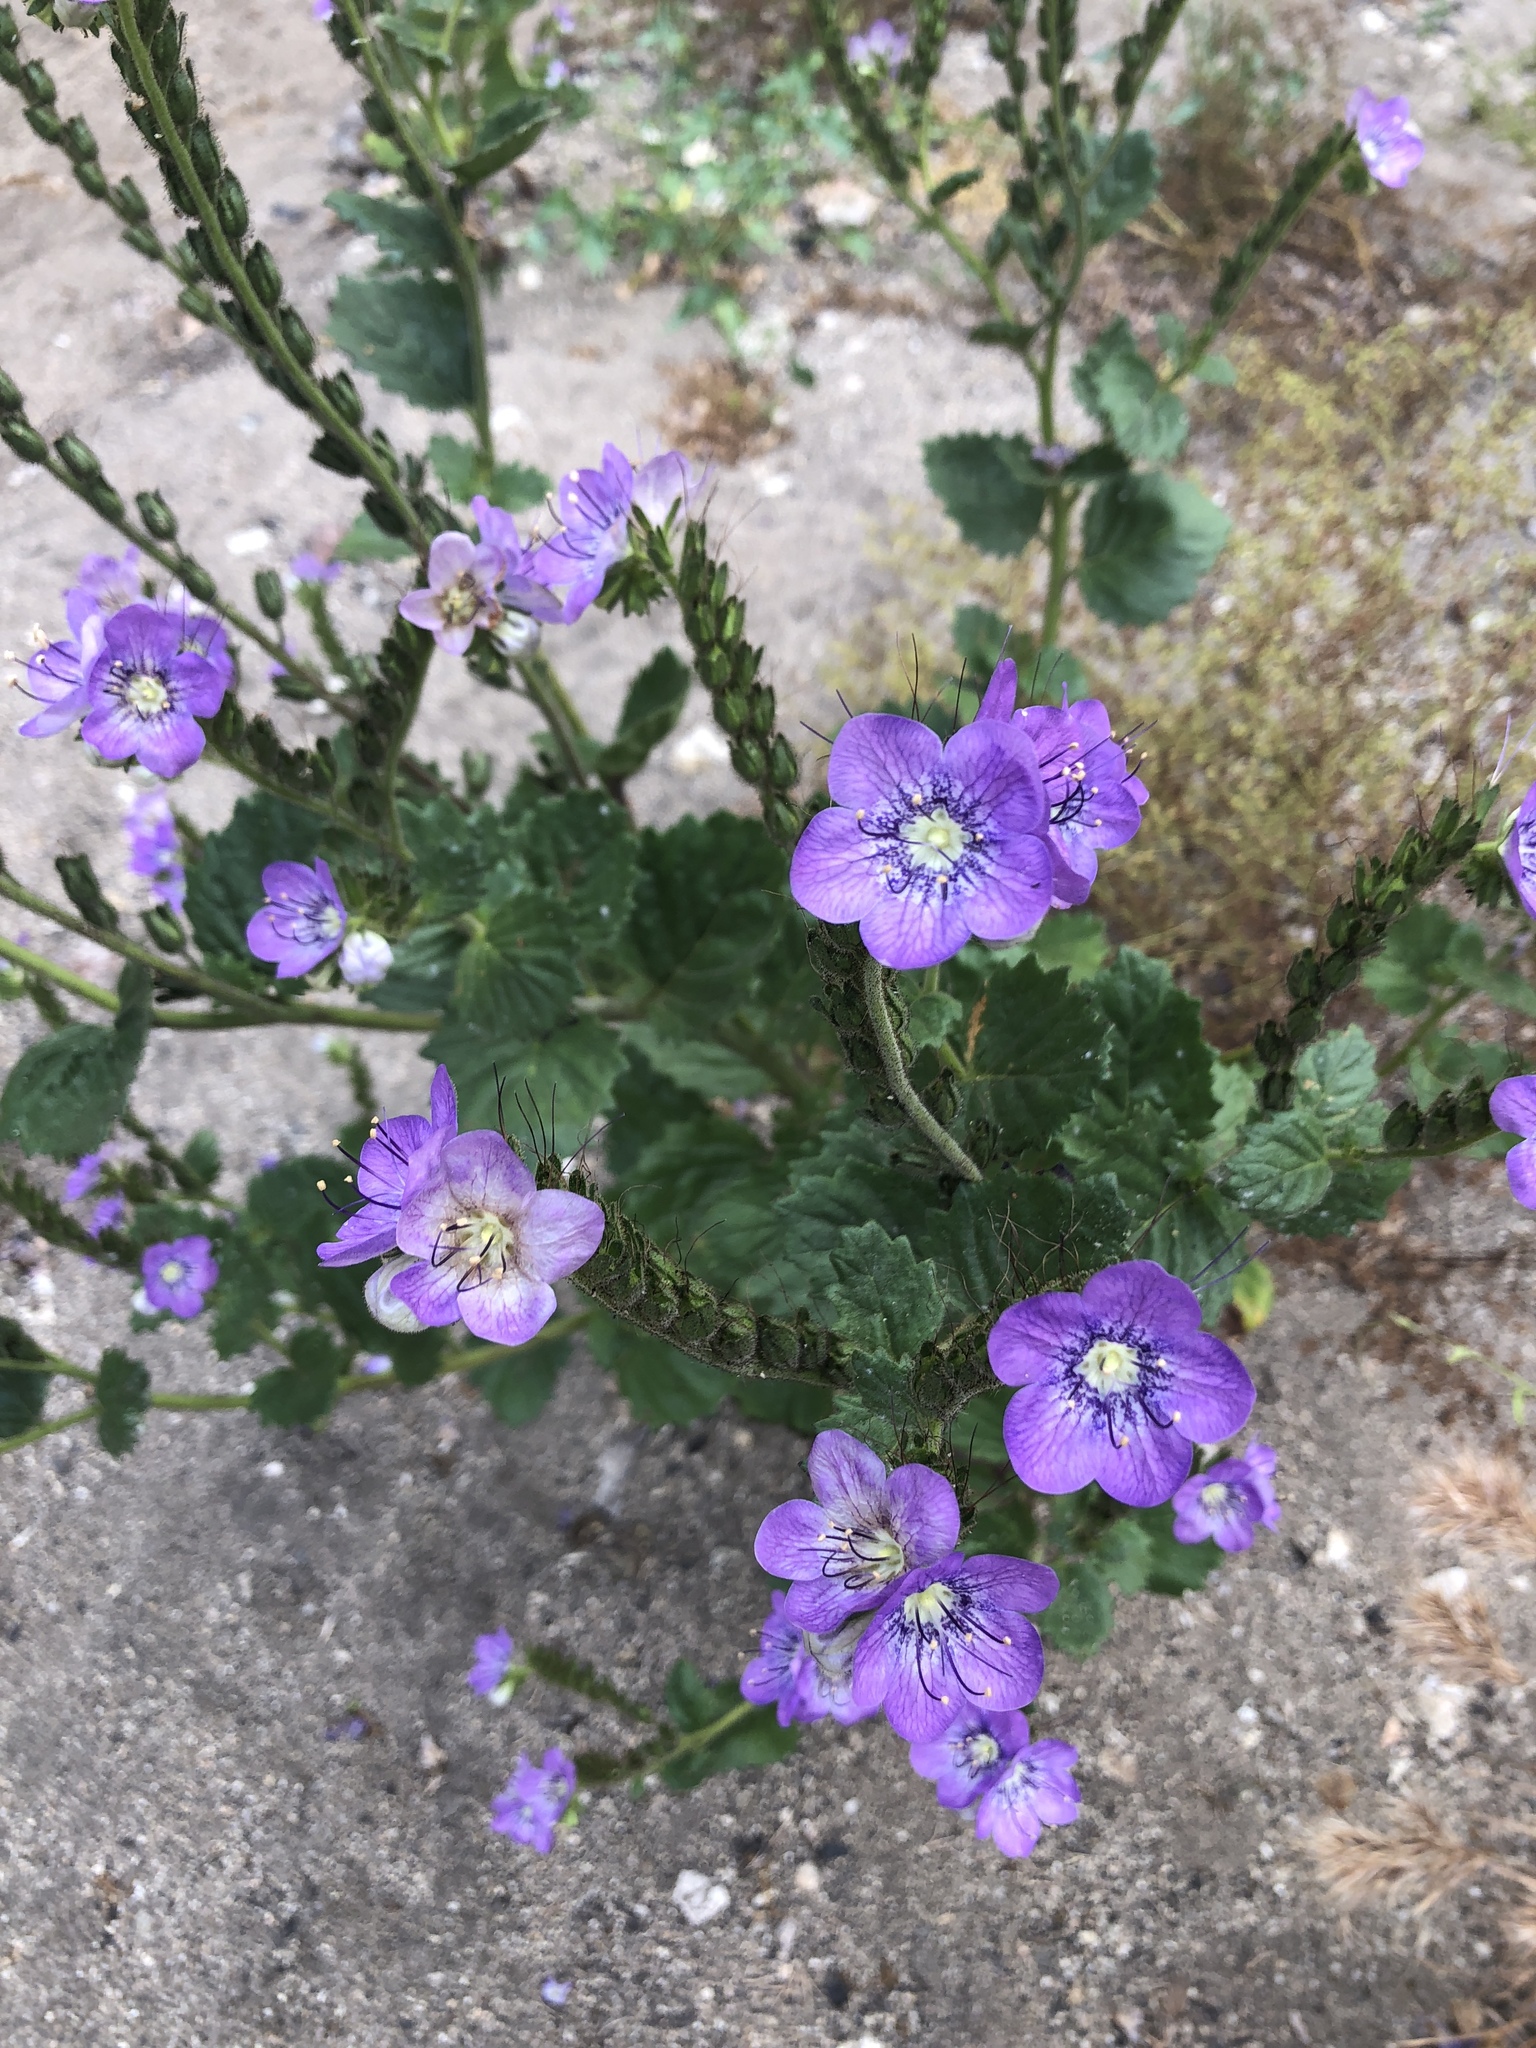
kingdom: Plantae
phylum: Tracheophyta
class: Magnoliopsida
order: Boraginales
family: Hydrophyllaceae
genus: Phacelia
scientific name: Phacelia grandiflora
